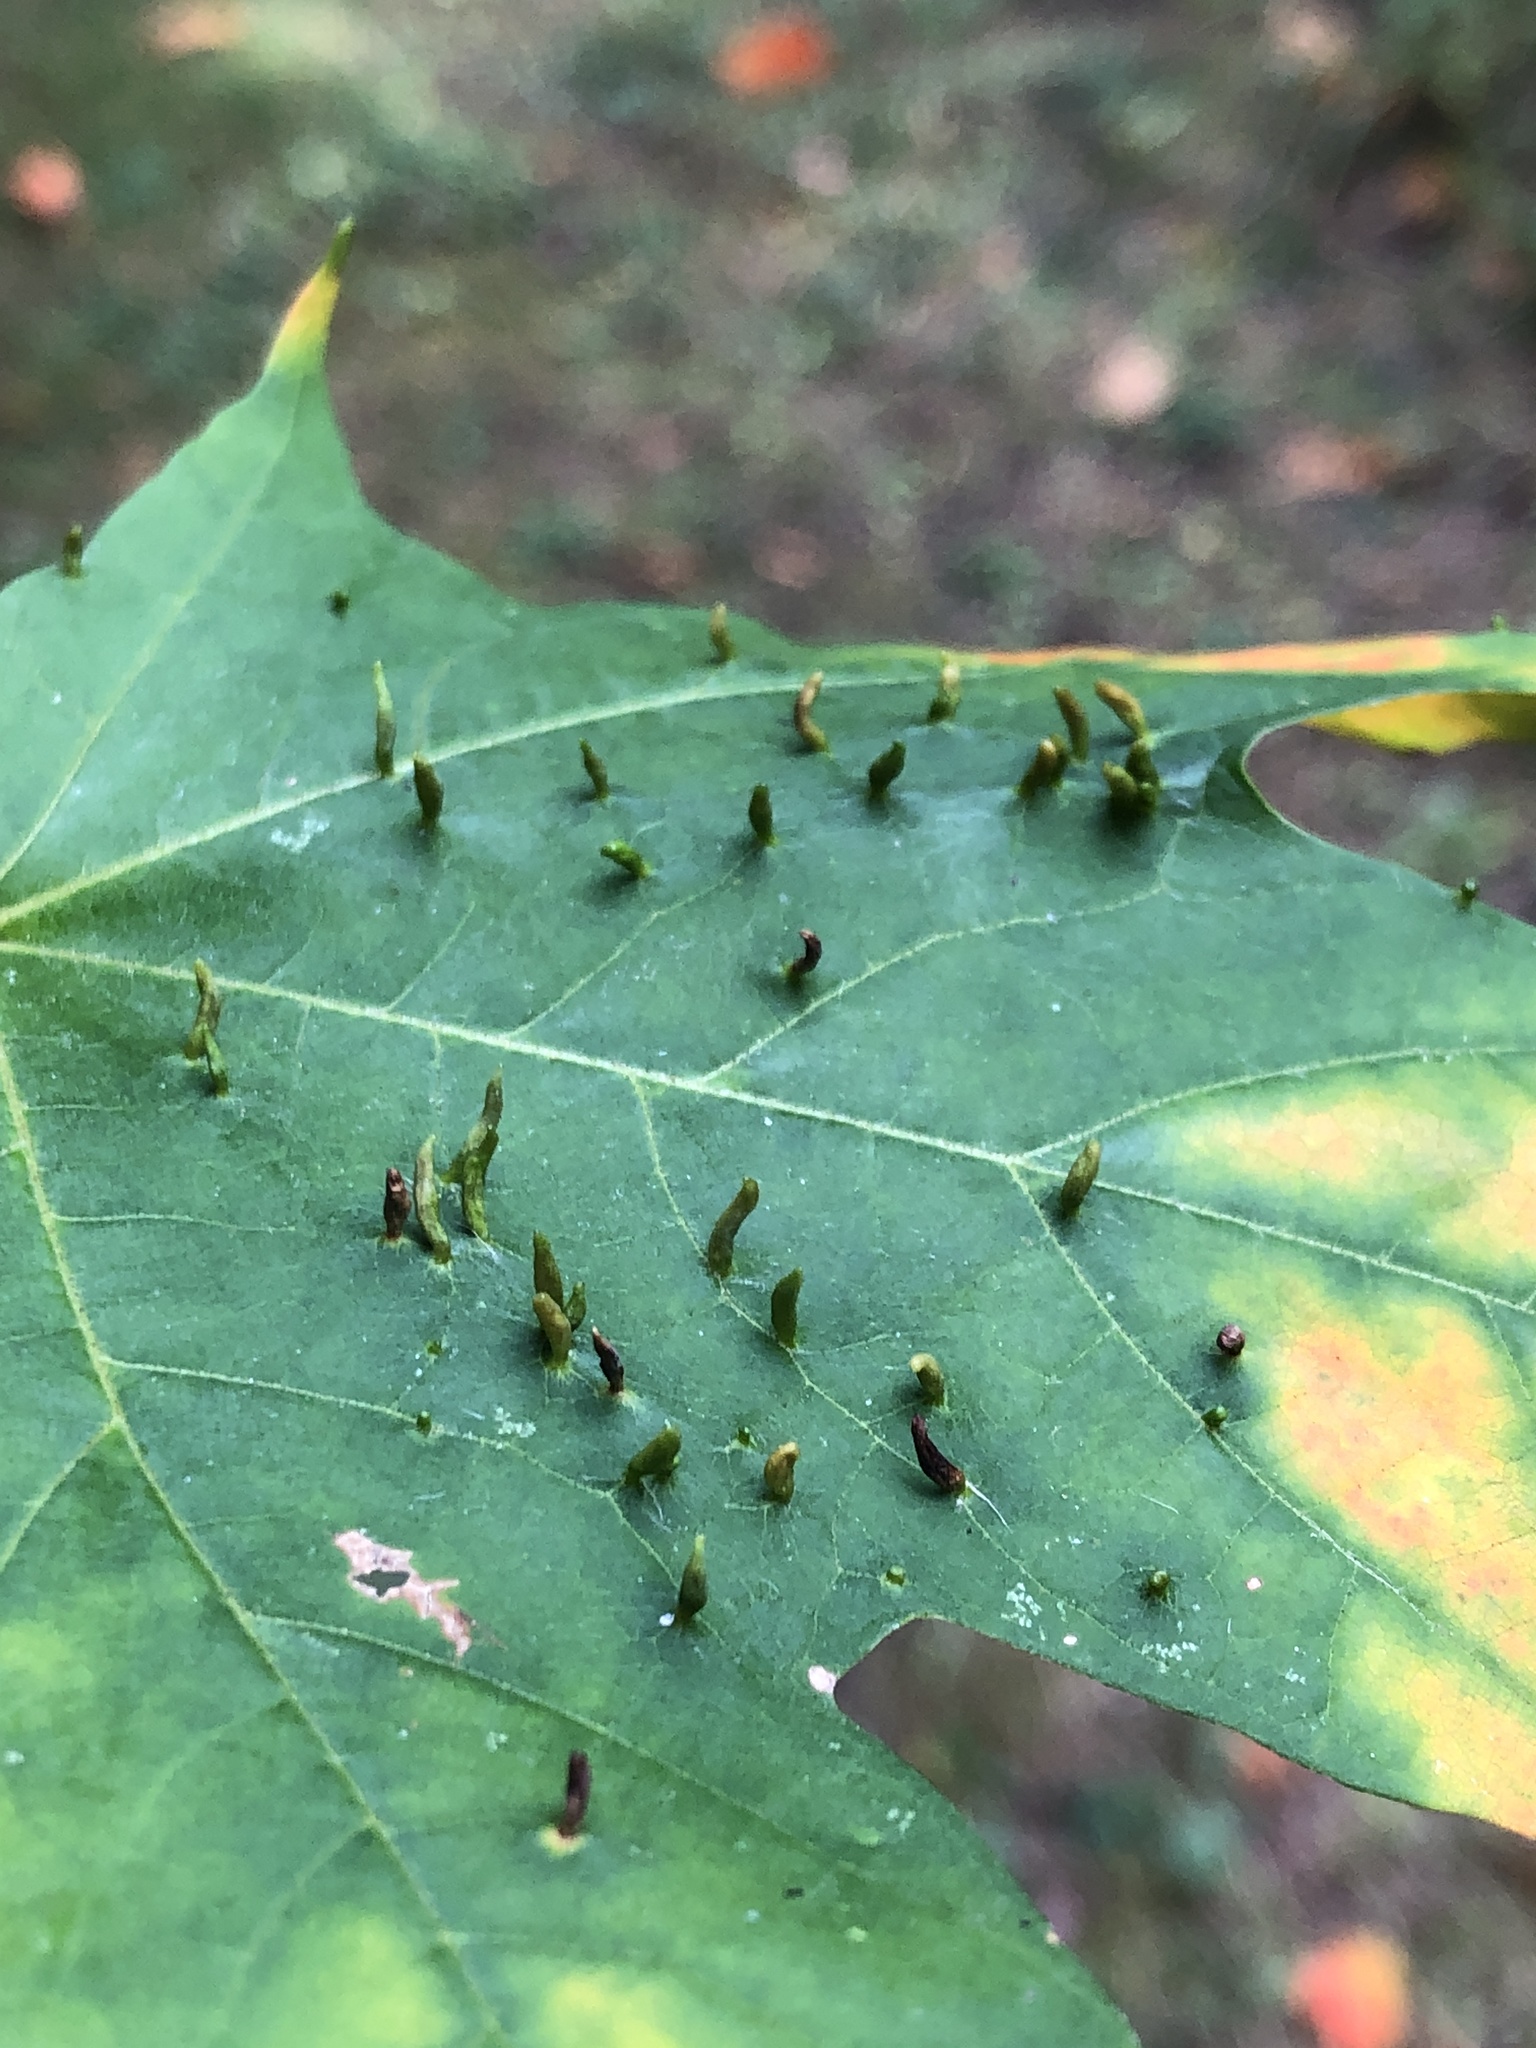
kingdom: Animalia
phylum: Arthropoda
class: Arachnida
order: Trombidiformes
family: Eriophyidae
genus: Vasates
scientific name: Vasates aceriscrumena
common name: Maple spindle gall mite
